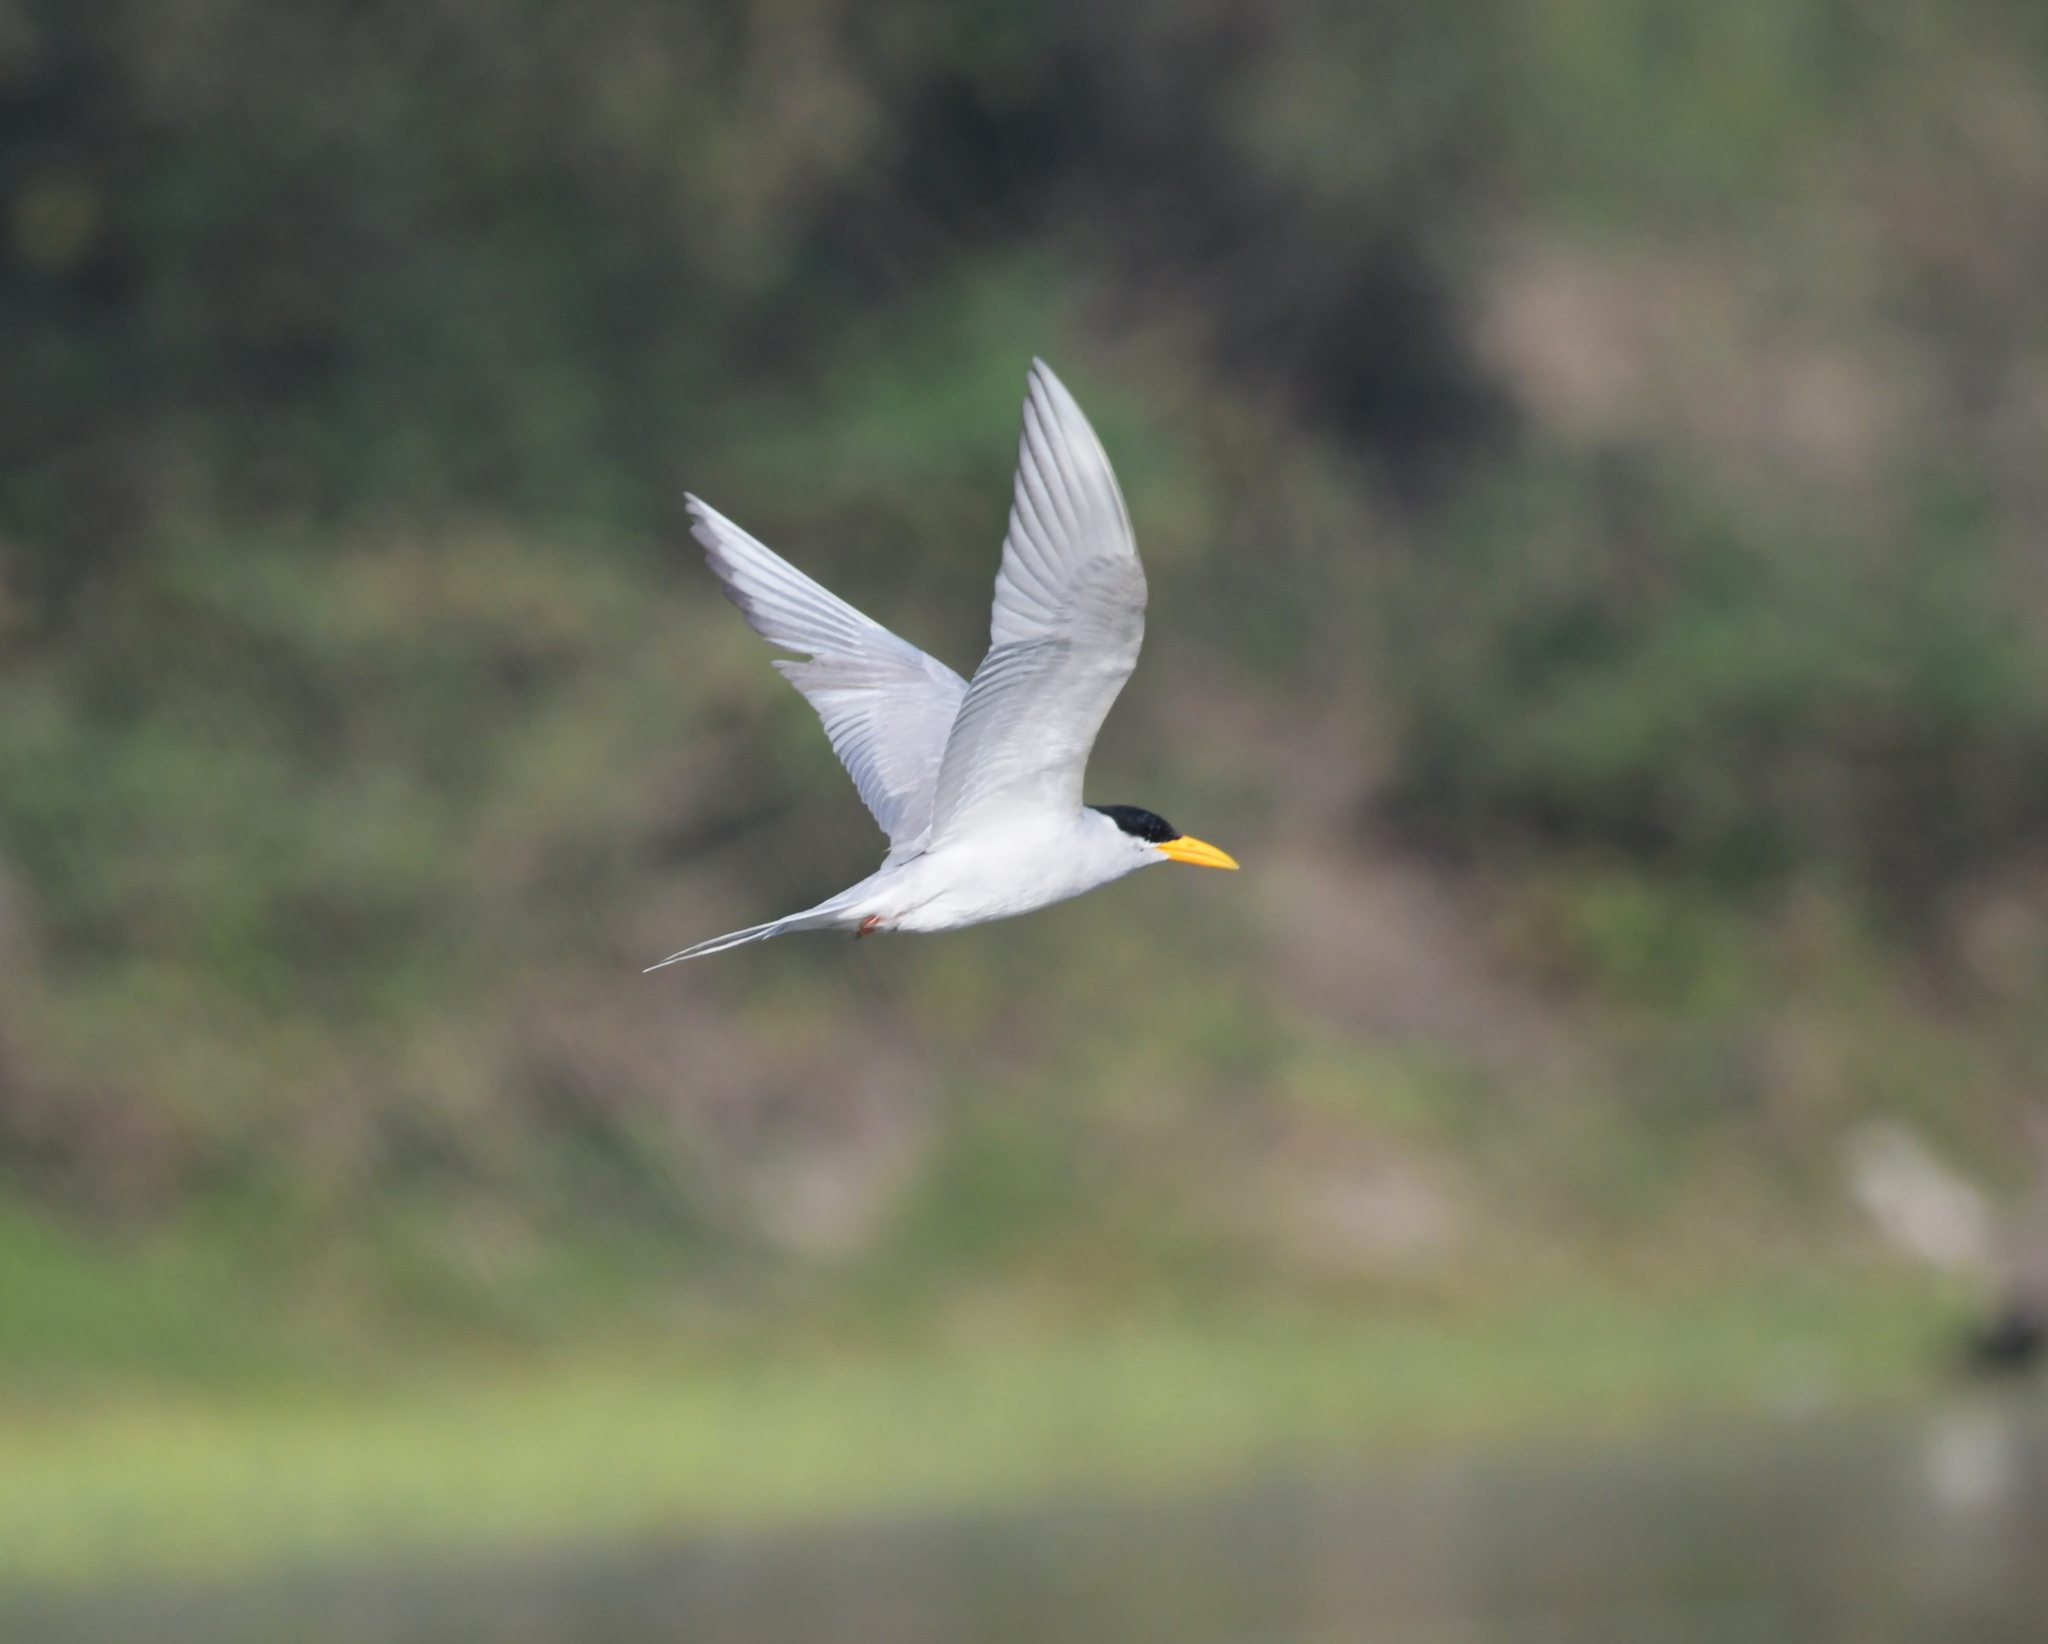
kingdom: Animalia
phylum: Chordata
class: Aves
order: Charadriiformes
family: Laridae
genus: Sterna
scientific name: Sterna aurantia
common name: River tern
